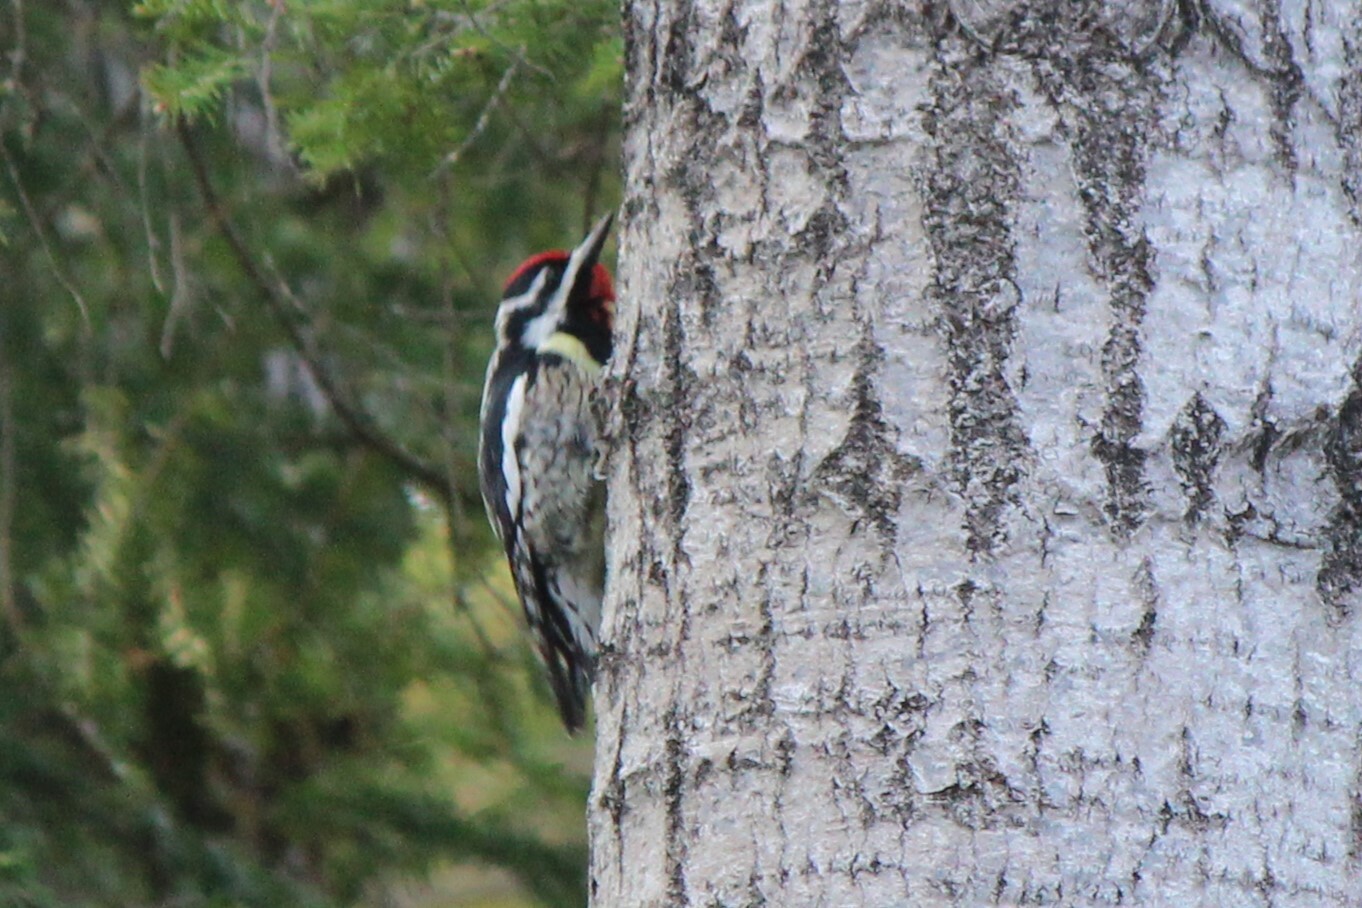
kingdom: Animalia
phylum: Chordata
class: Aves
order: Piciformes
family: Picidae
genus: Sphyrapicus
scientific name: Sphyrapicus varius
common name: Yellow-bellied sapsucker
